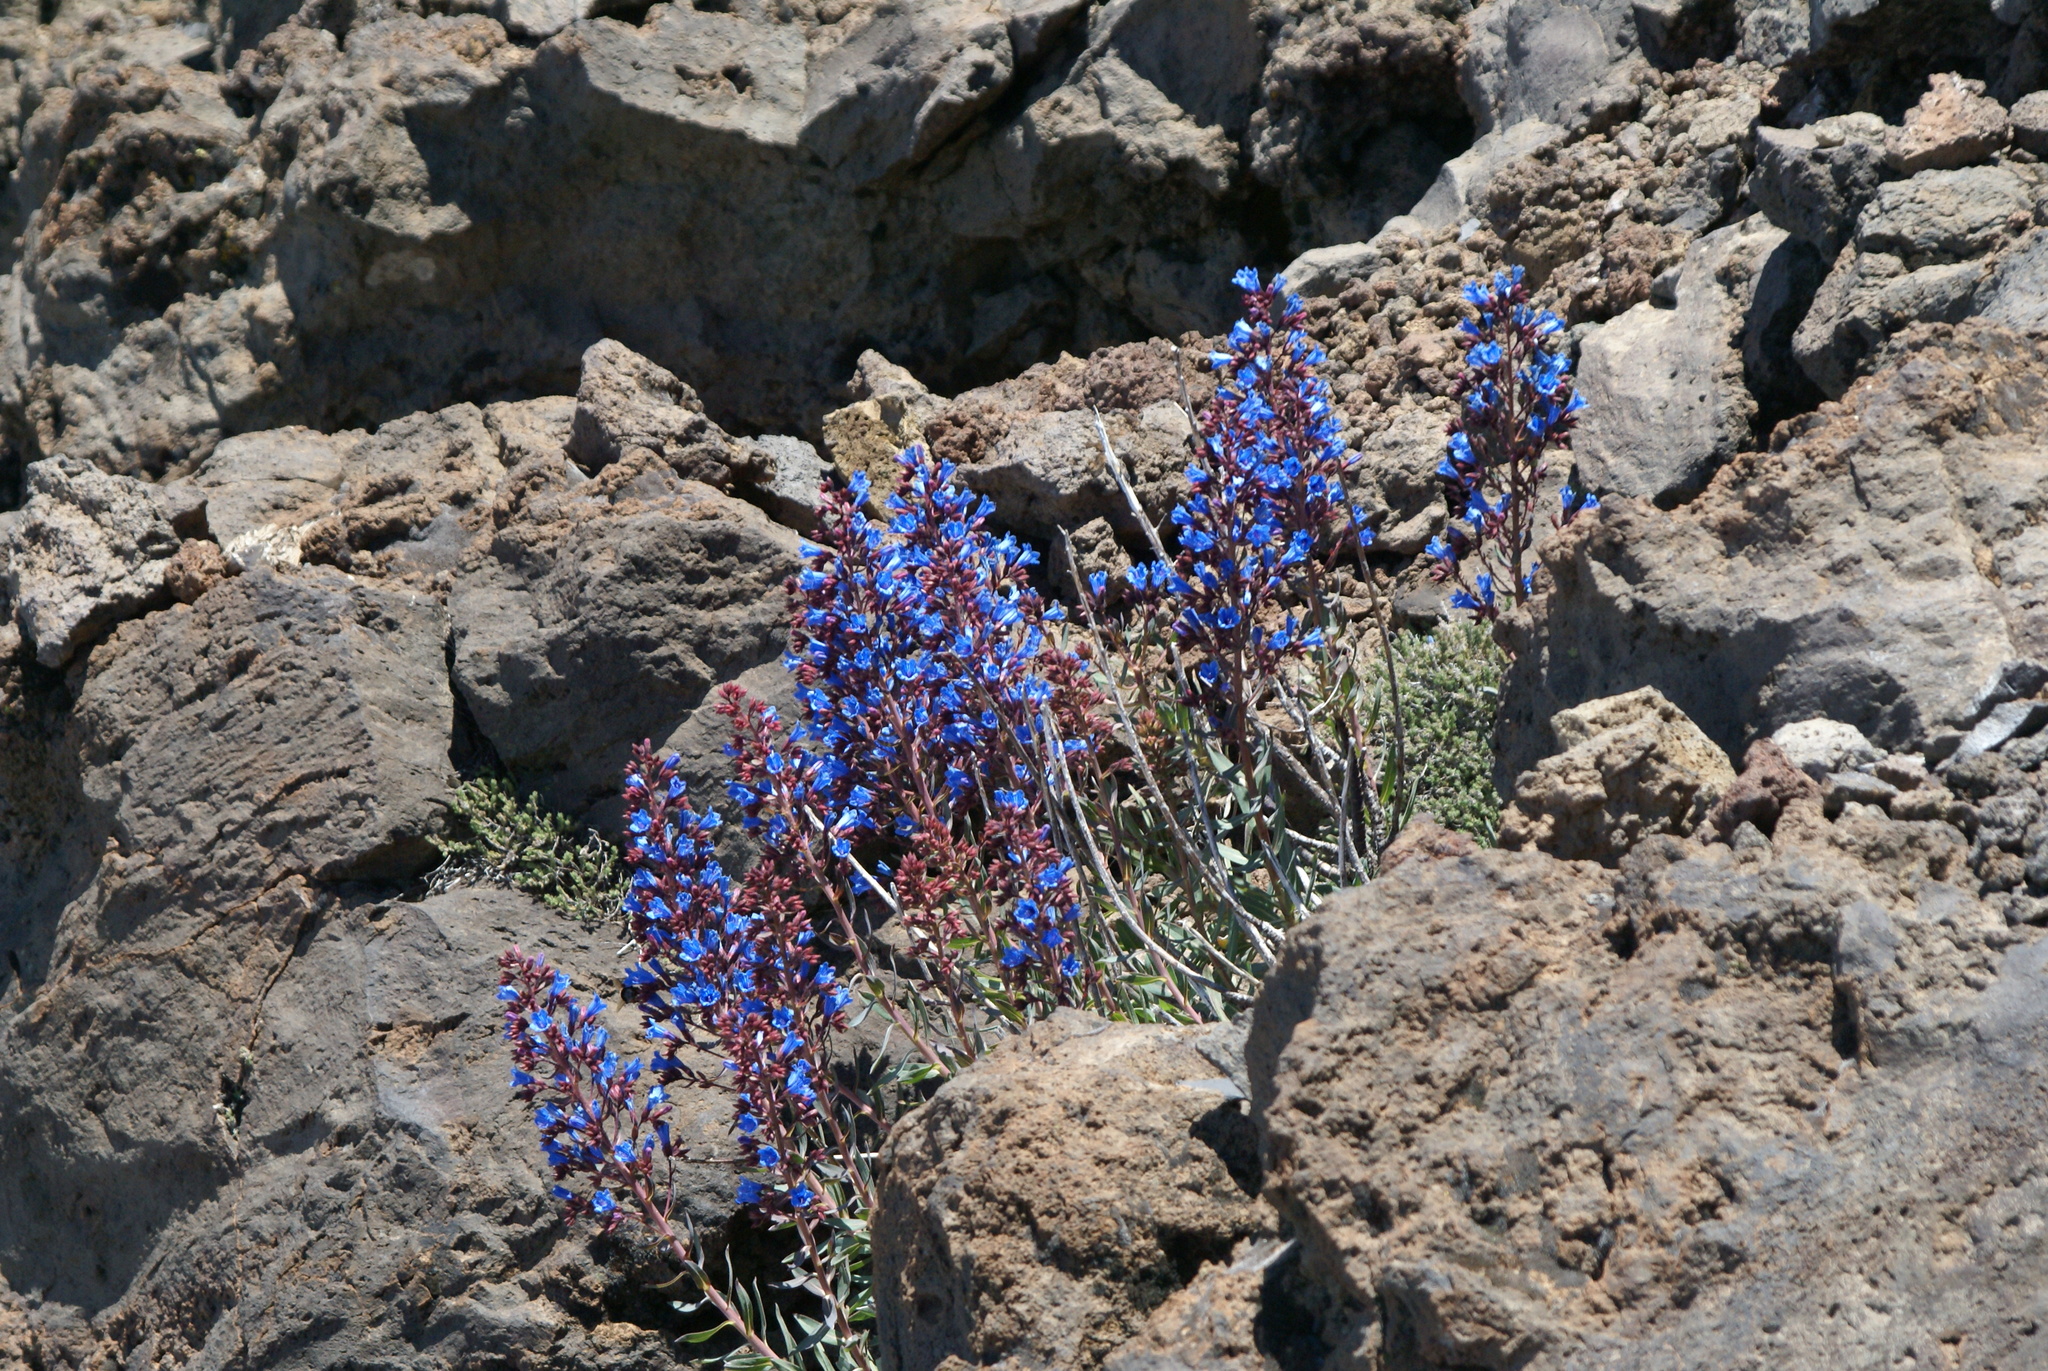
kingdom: Plantae
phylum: Tracheophyta
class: Magnoliopsida
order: Boraginales
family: Boraginaceae
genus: Echium
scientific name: Echium thyrsiflorum
